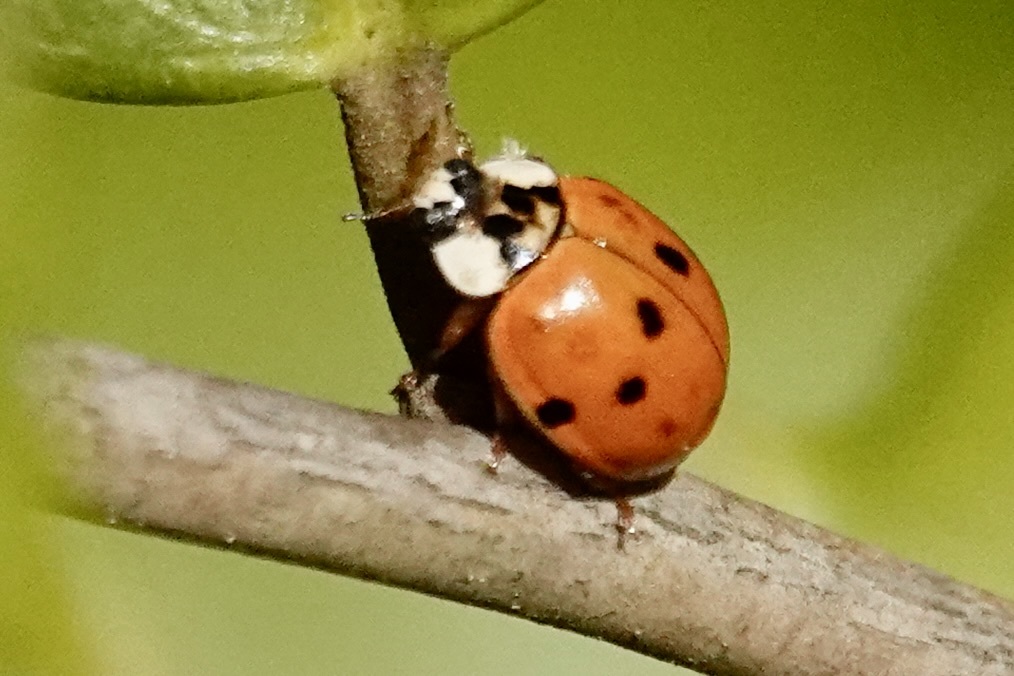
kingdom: Animalia
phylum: Arthropoda
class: Insecta
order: Coleoptera
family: Coccinellidae
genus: Harmonia
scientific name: Harmonia axyridis
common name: Harlequin ladybird
